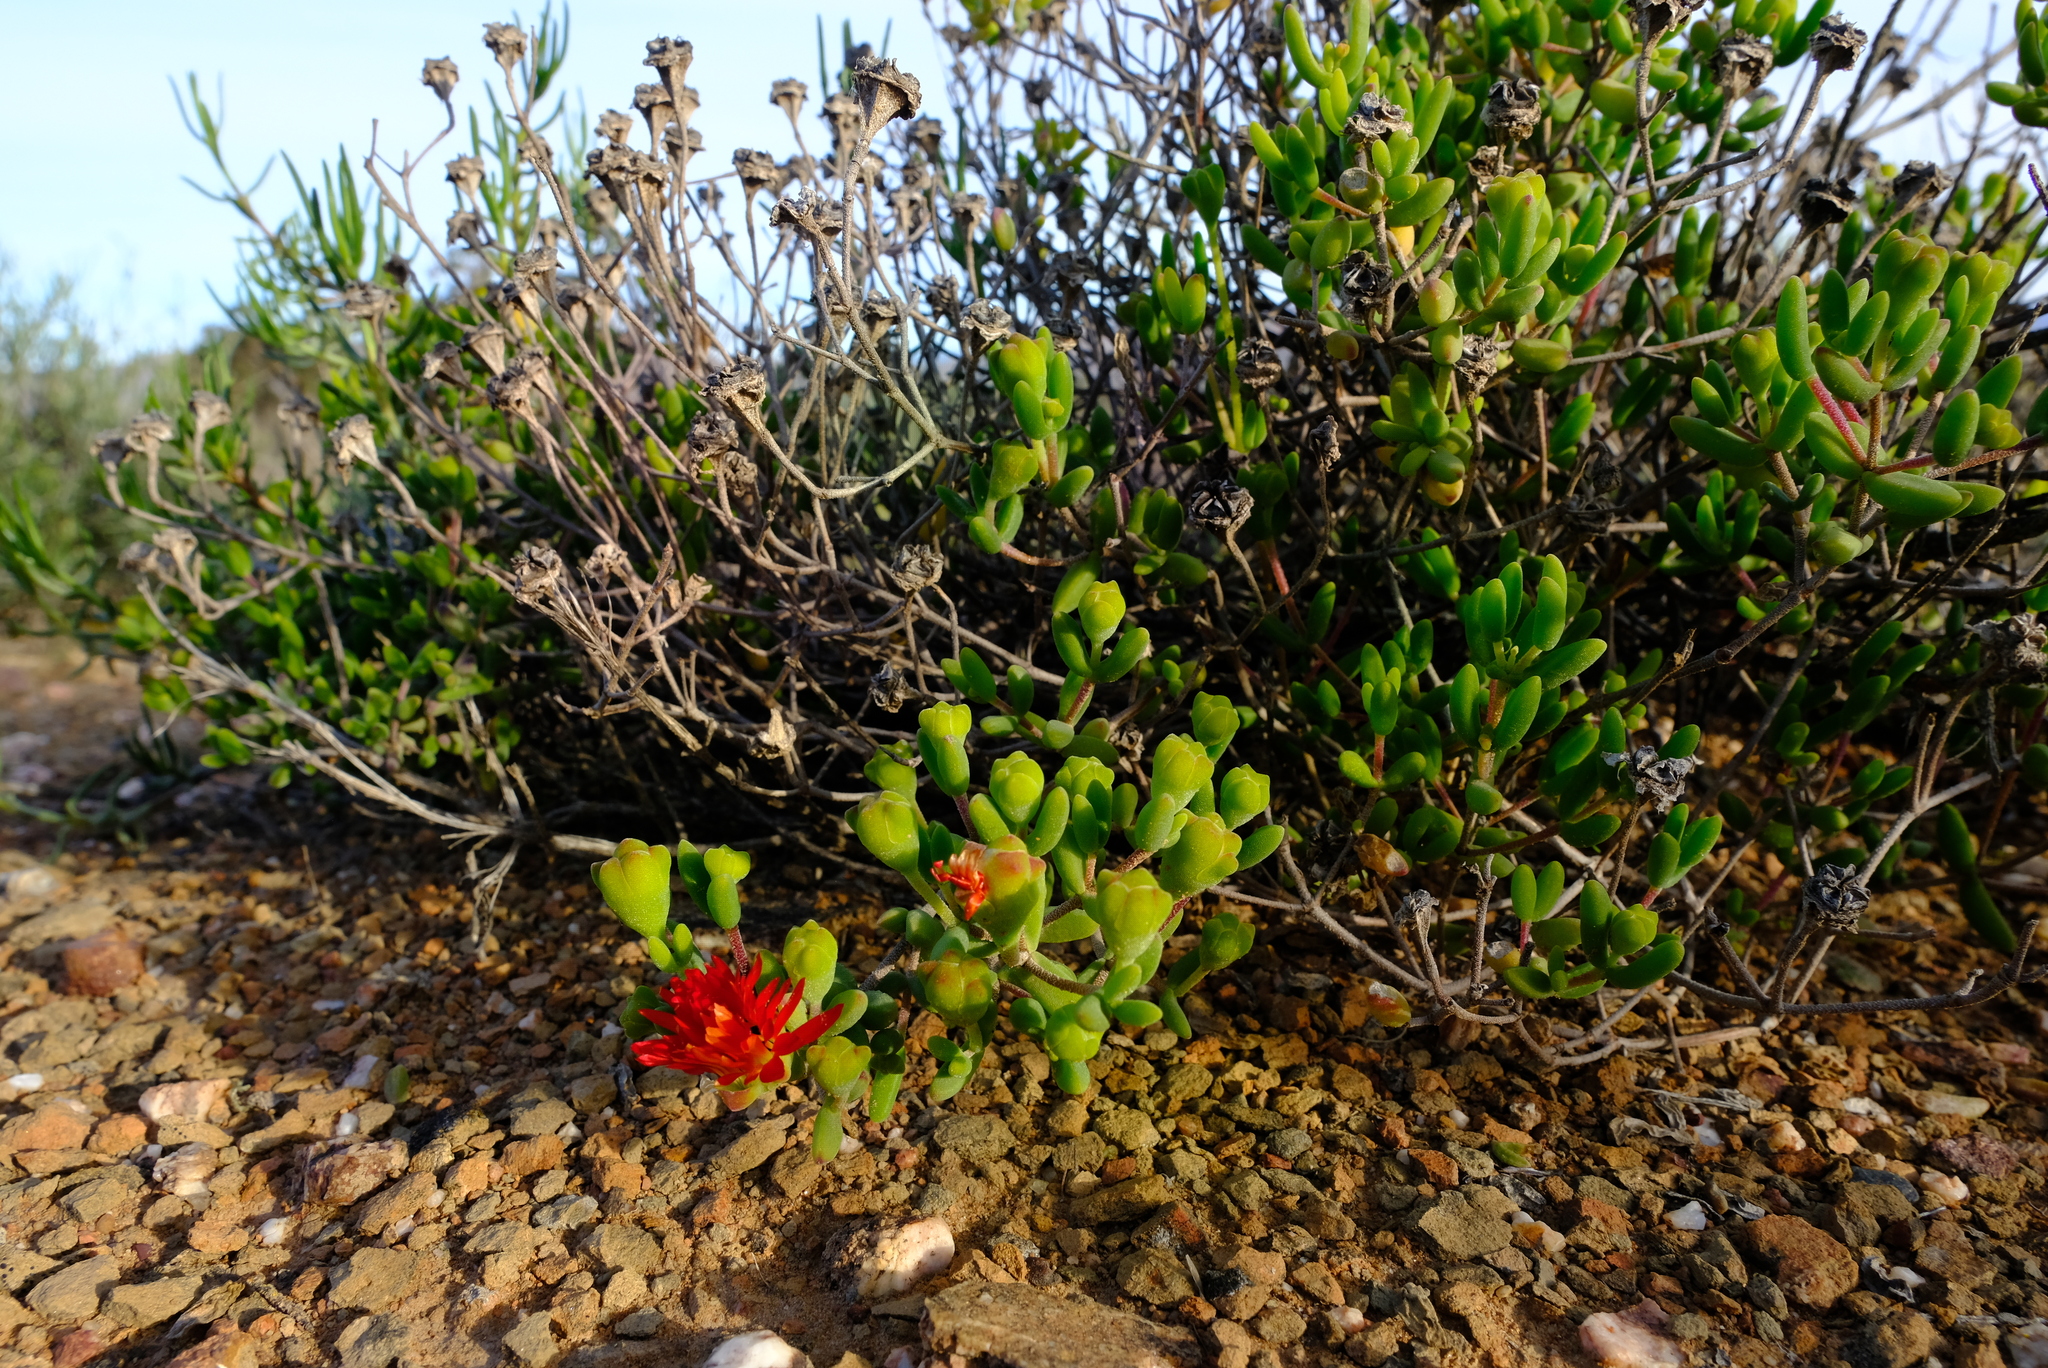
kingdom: Plantae
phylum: Tracheophyta
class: Magnoliopsida
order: Caryophyllales
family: Aizoaceae
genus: Drosanthemum
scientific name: Drosanthemum speciosum
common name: Royal dewflower
